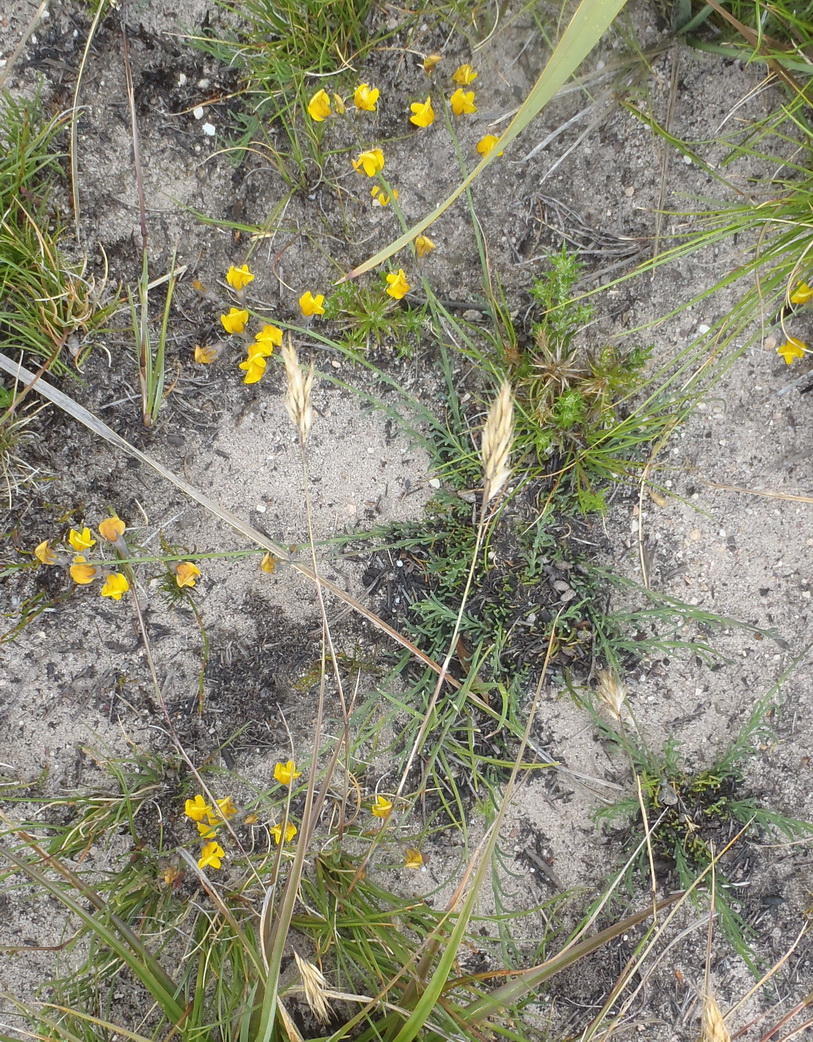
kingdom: Plantae
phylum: Tracheophyta
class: Magnoliopsida
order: Fabales
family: Fabaceae
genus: Lebeckia
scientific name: Lebeckia pauciflora
